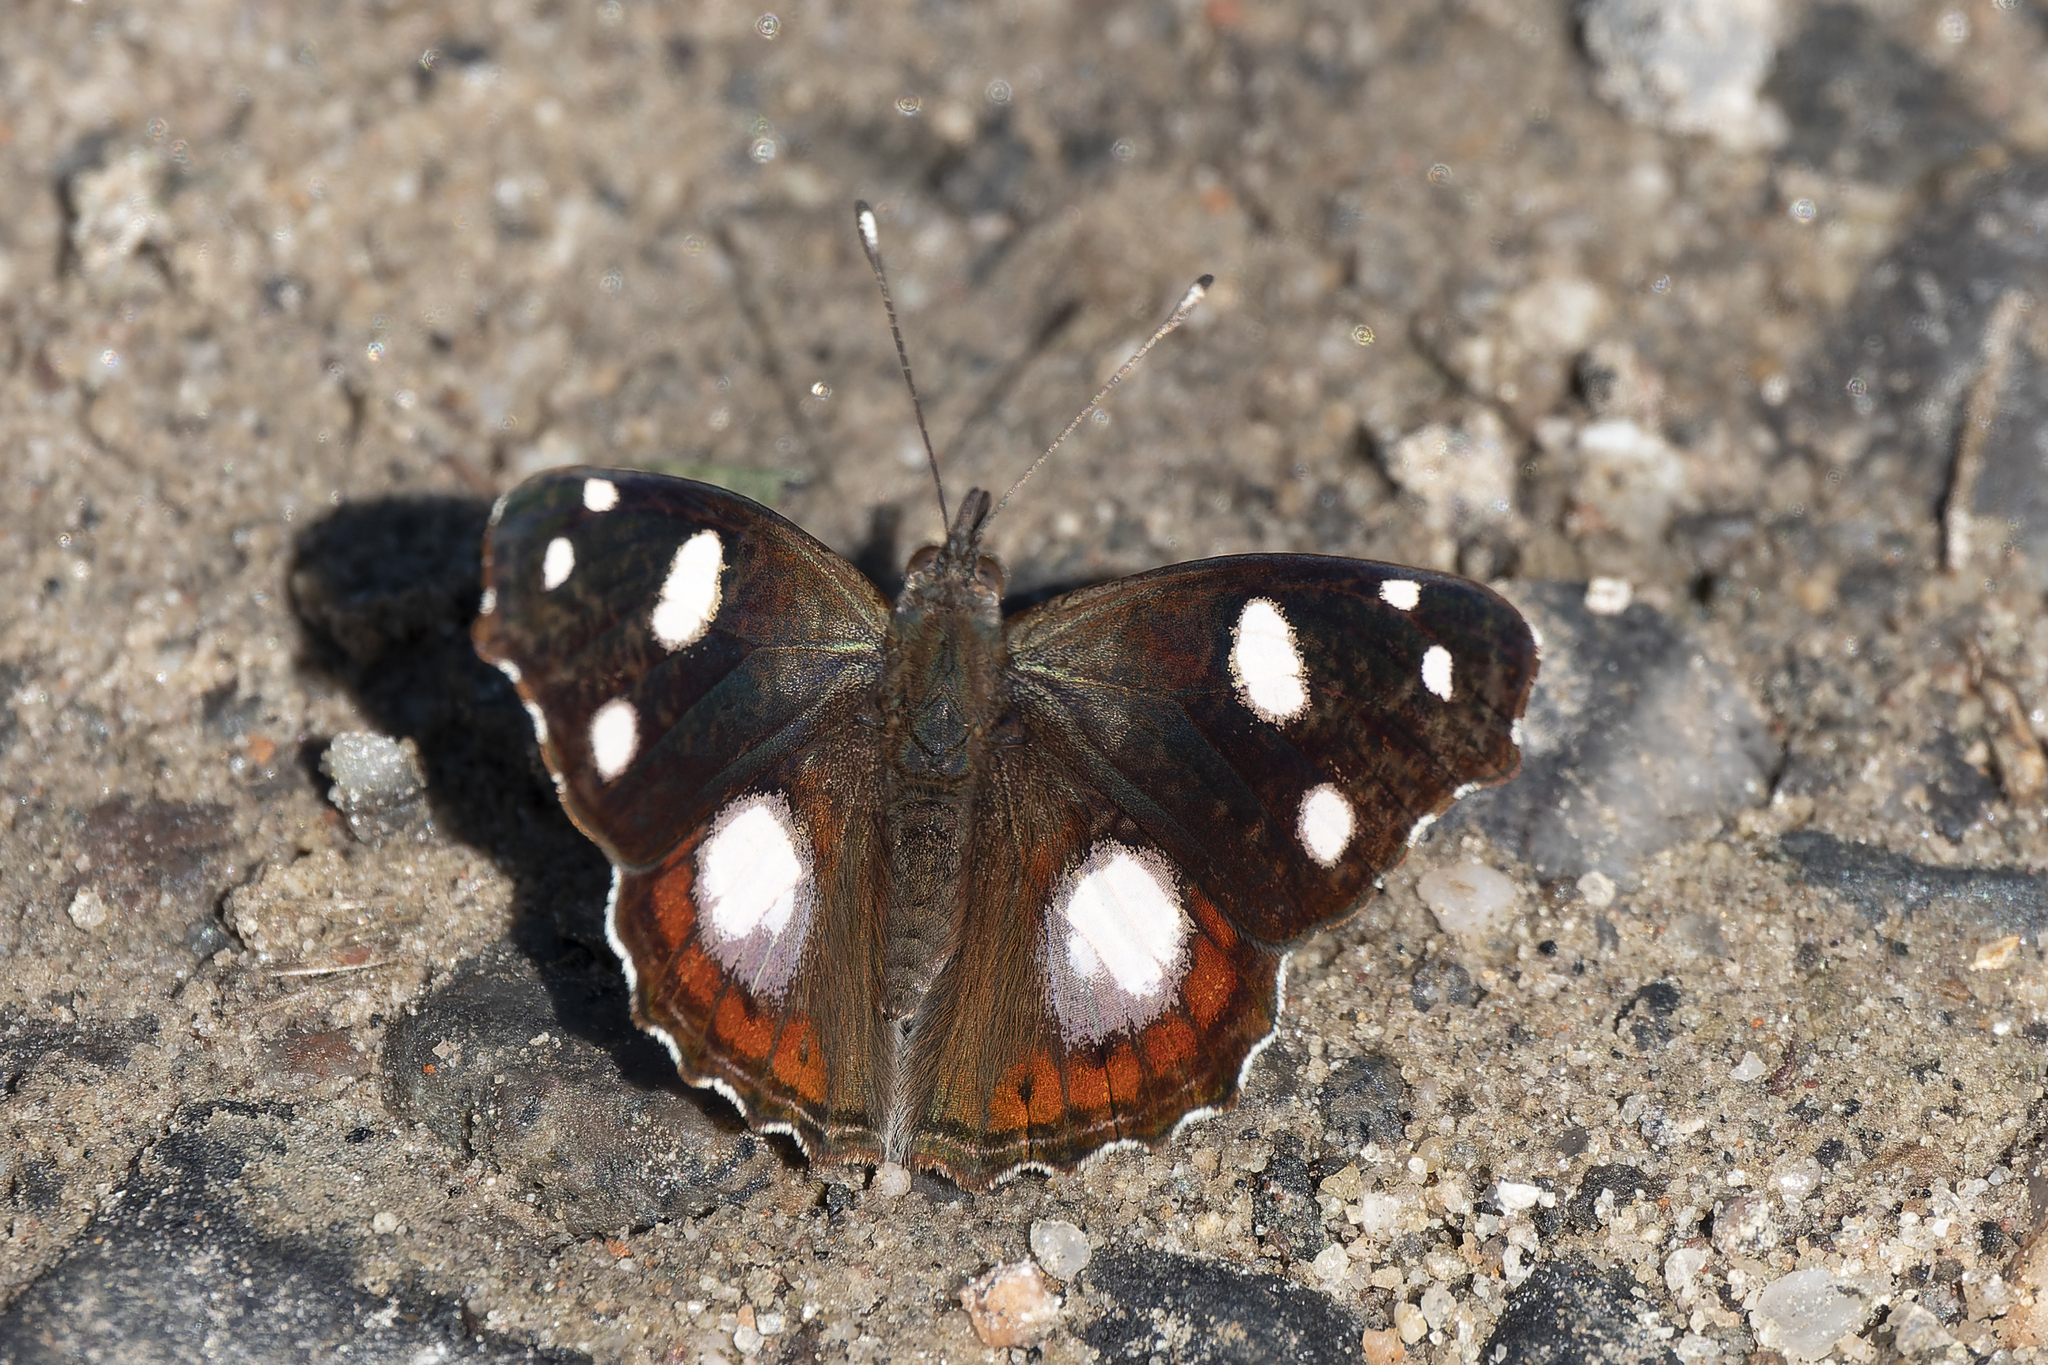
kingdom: Animalia
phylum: Arthropoda
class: Insecta
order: Lepidoptera
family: Nymphalidae
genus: Cybdelis
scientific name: Cybdelis
